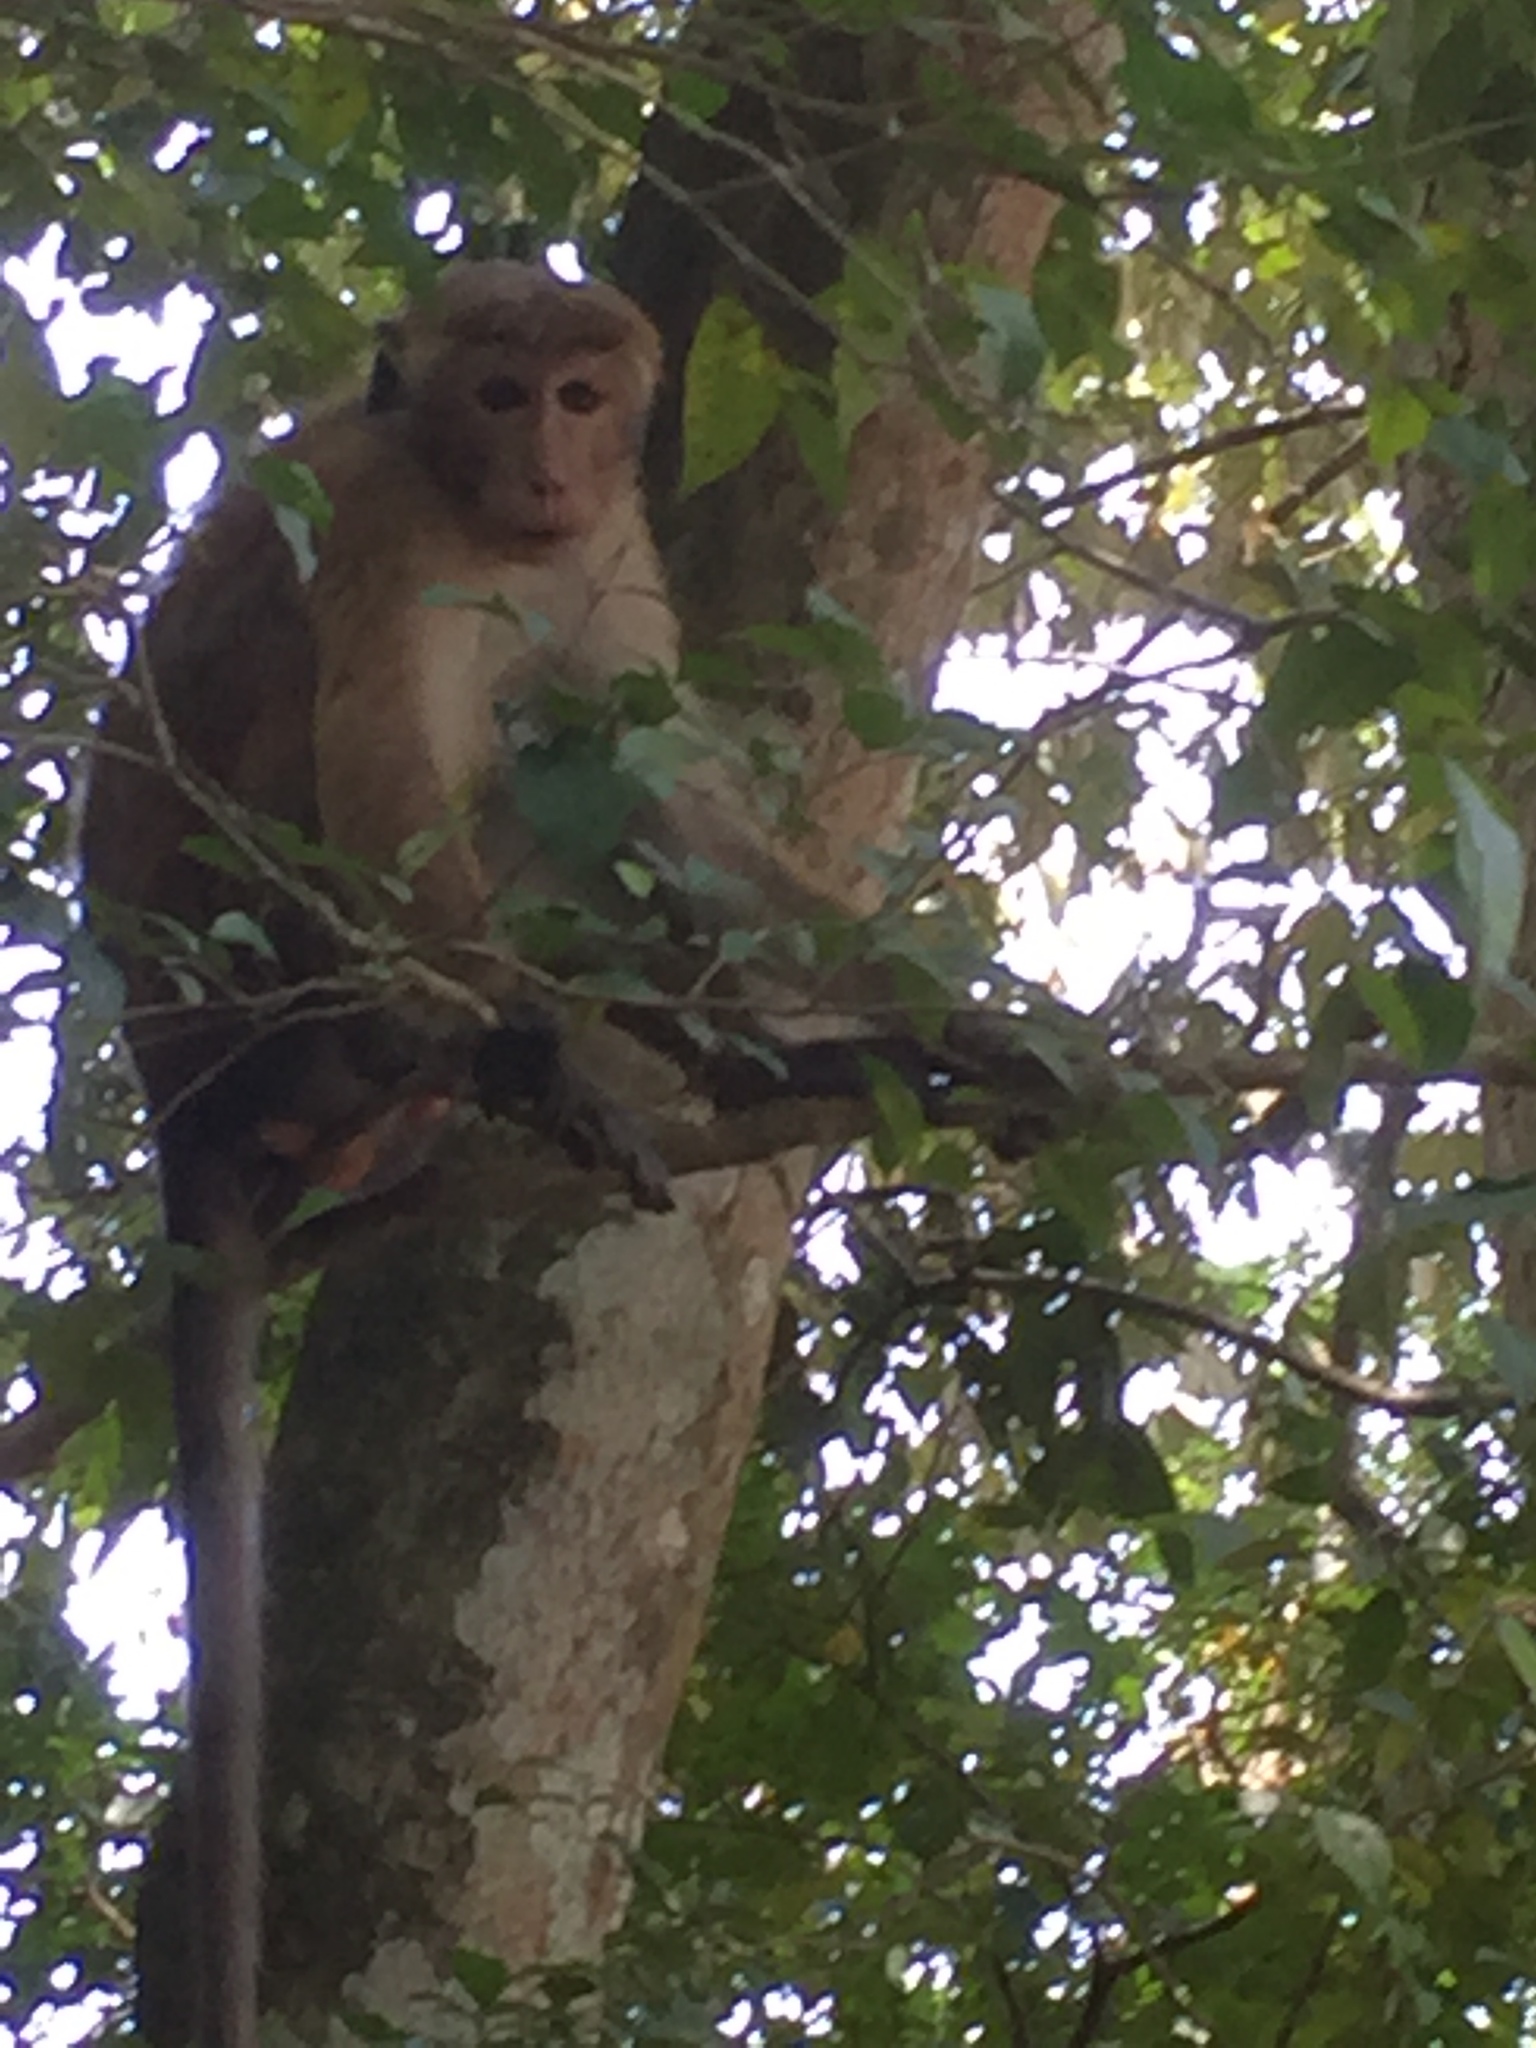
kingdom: Animalia
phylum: Chordata
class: Mammalia
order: Primates
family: Cercopithecidae
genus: Macaca
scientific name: Macaca sinica
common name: Toque macaque
